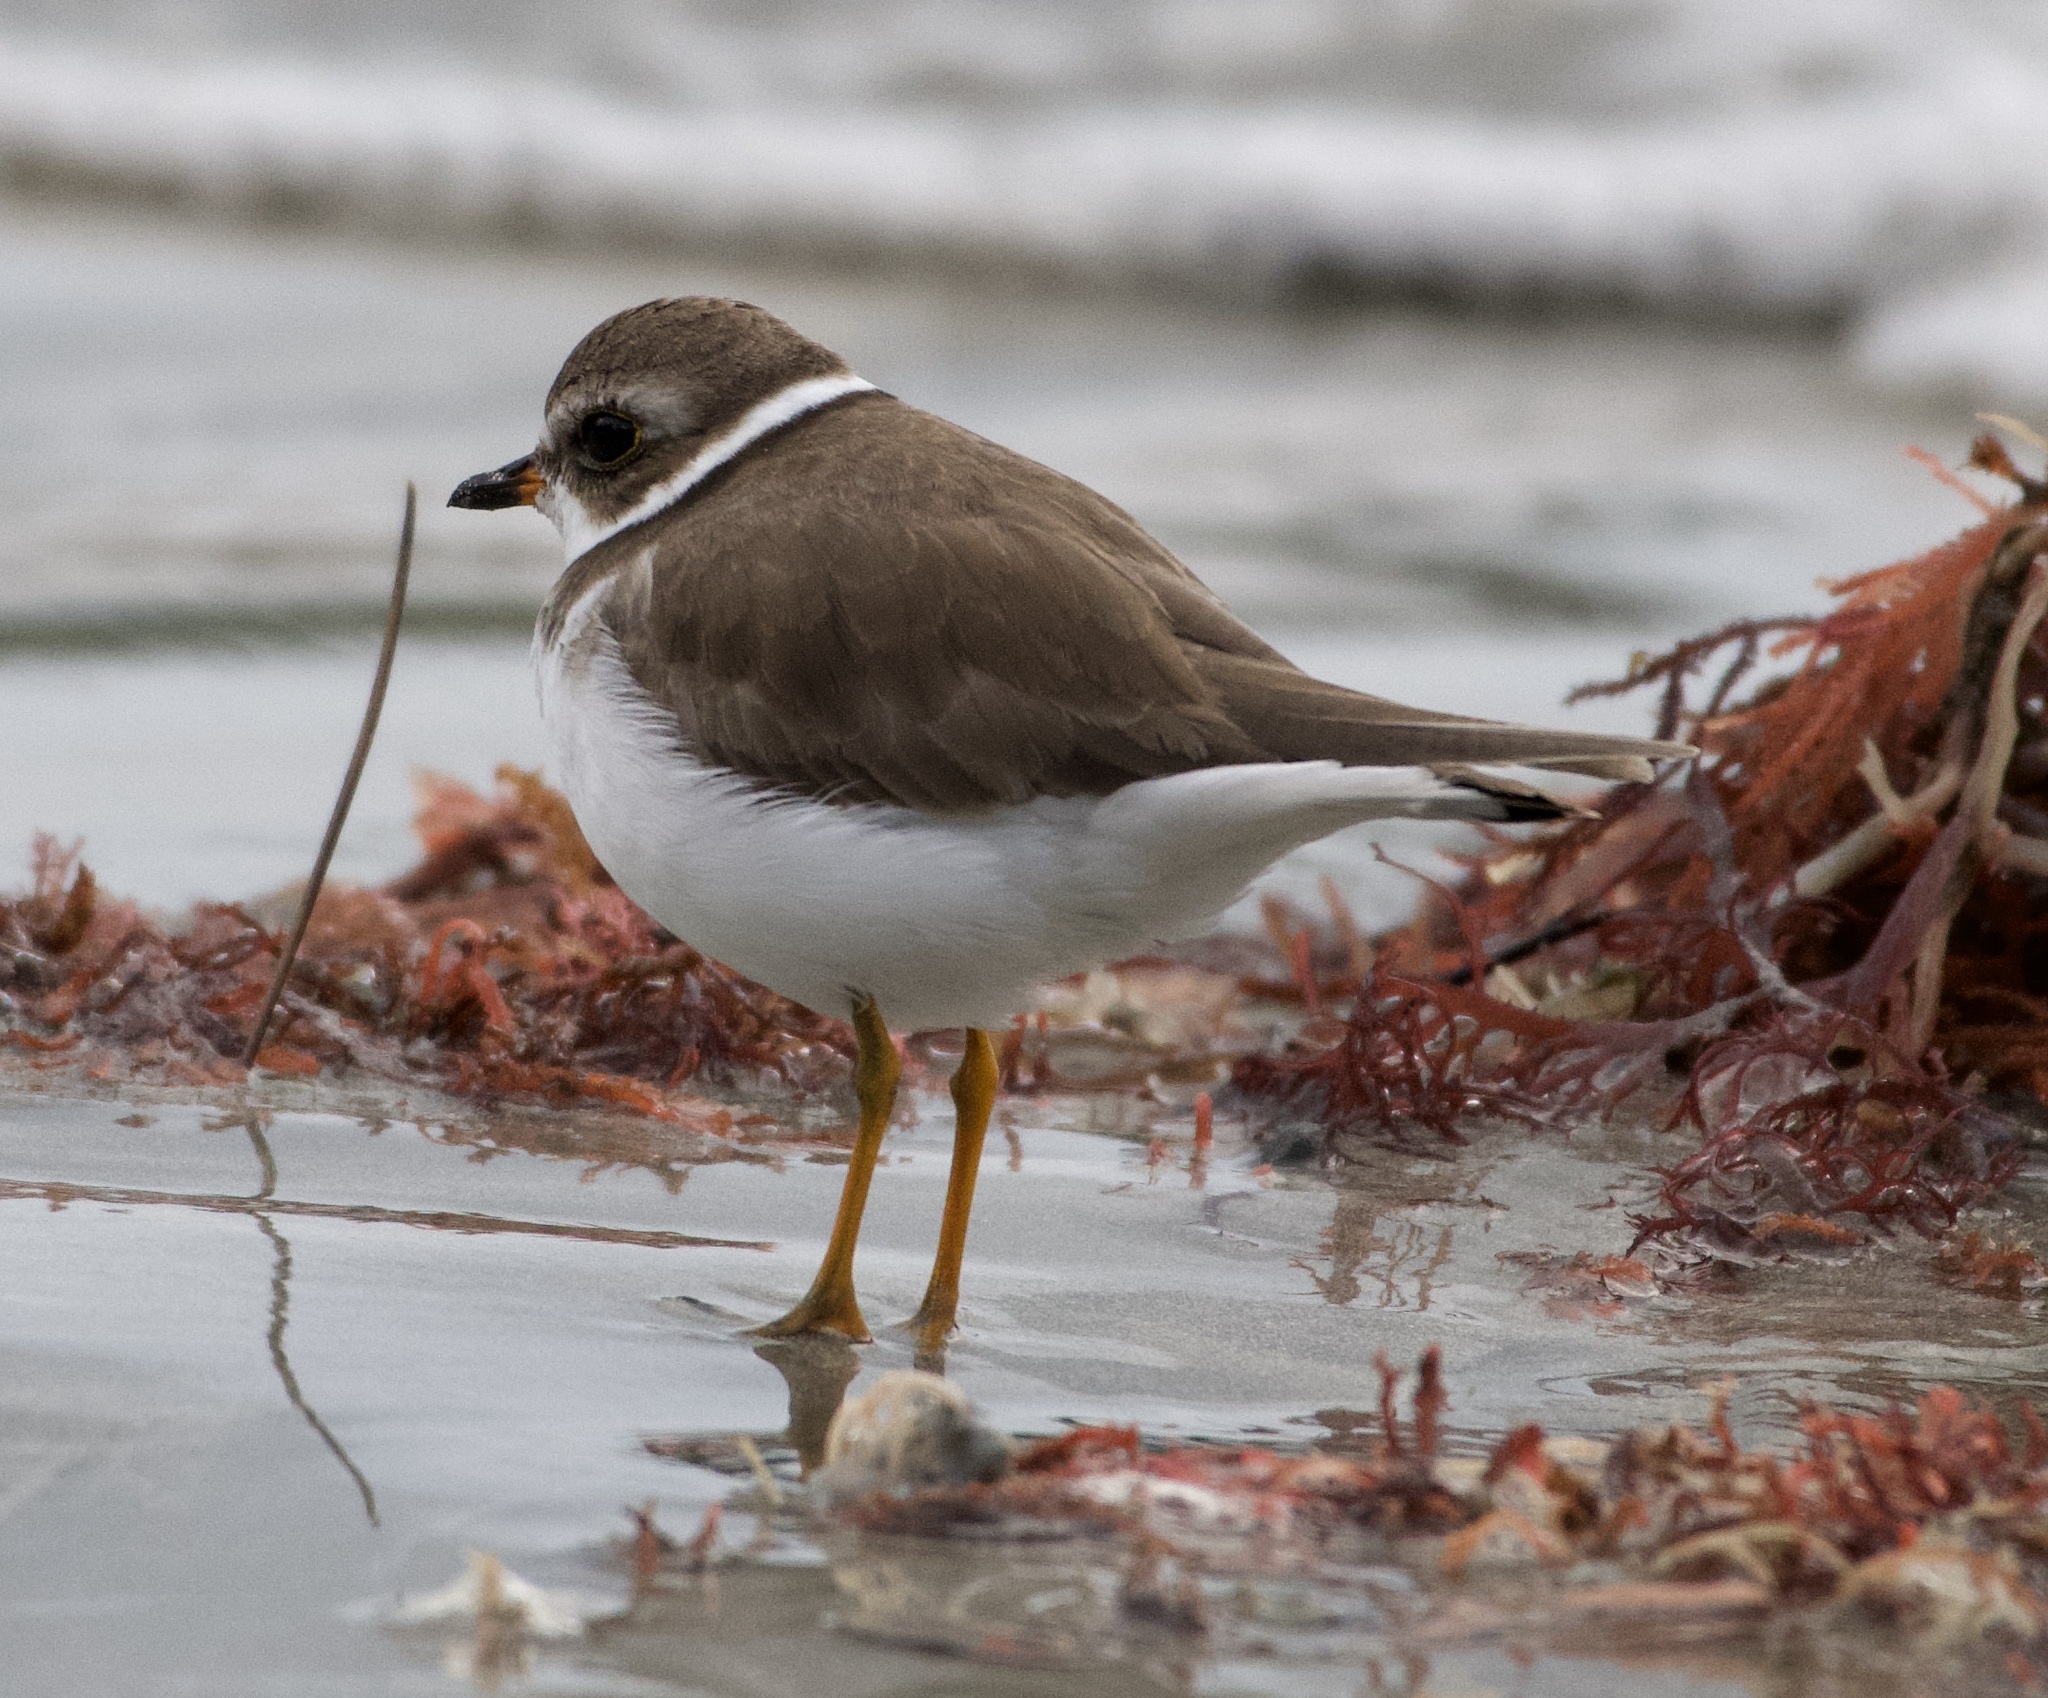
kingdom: Animalia
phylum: Chordata
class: Aves
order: Charadriiformes
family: Charadriidae
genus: Charadrius
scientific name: Charadrius semipalmatus
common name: Semipalmated plover
